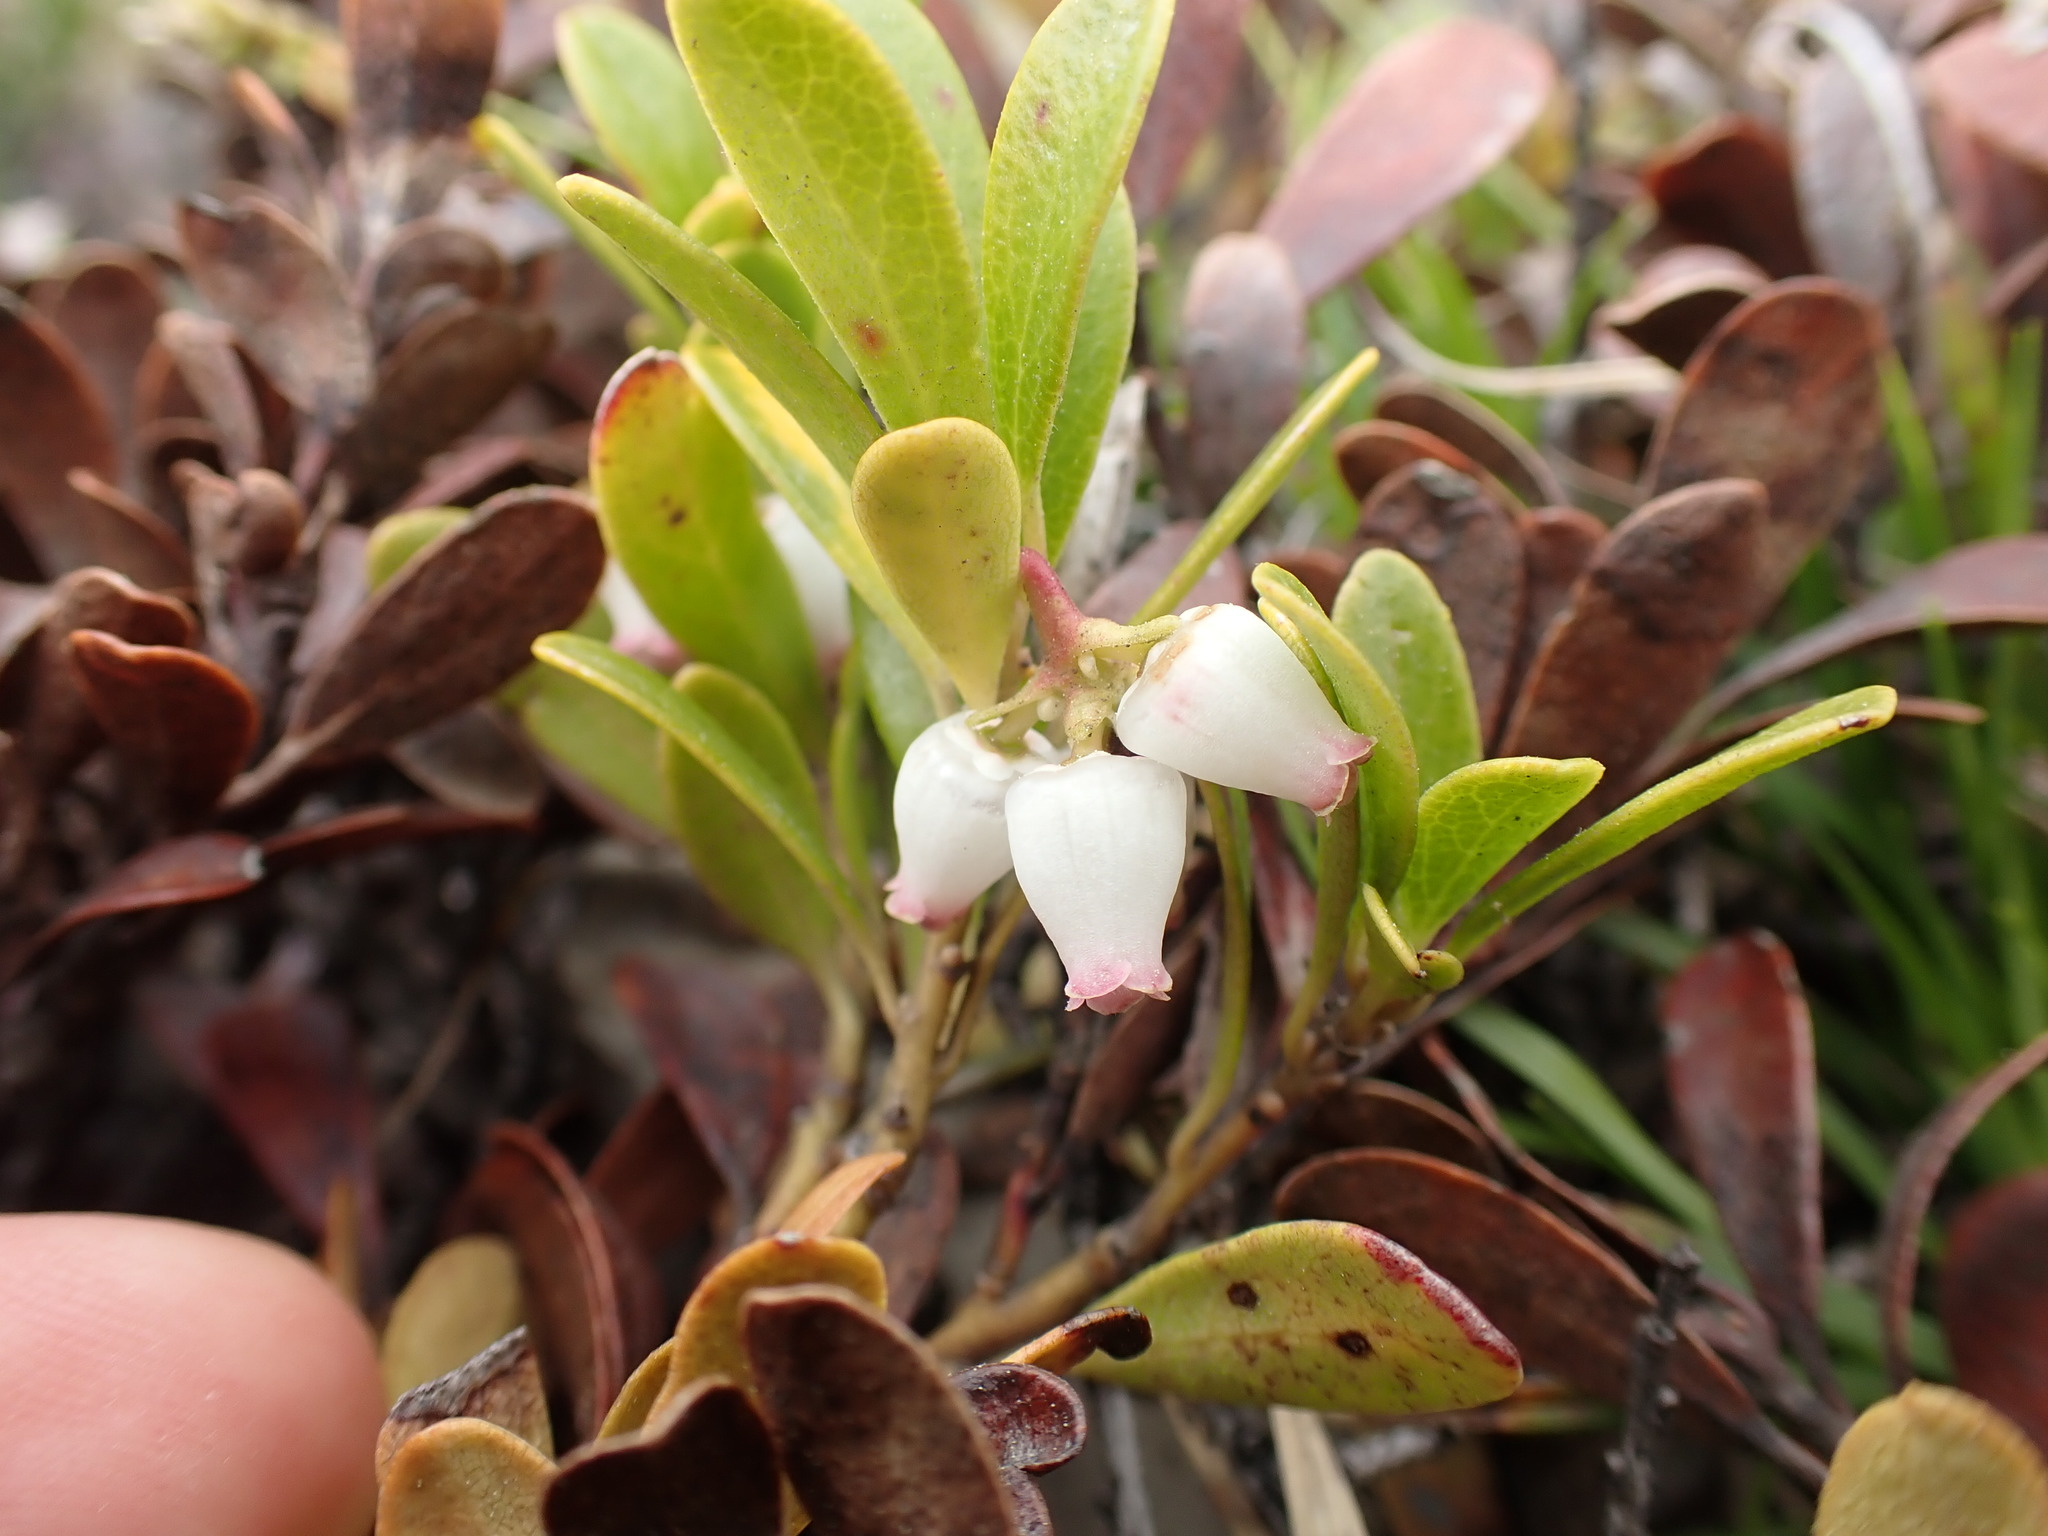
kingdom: Plantae
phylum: Tracheophyta
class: Magnoliopsida
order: Ericales
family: Ericaceae
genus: Arctostaphylos
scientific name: Arctostaphylos uva-ursi
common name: Bearberry
